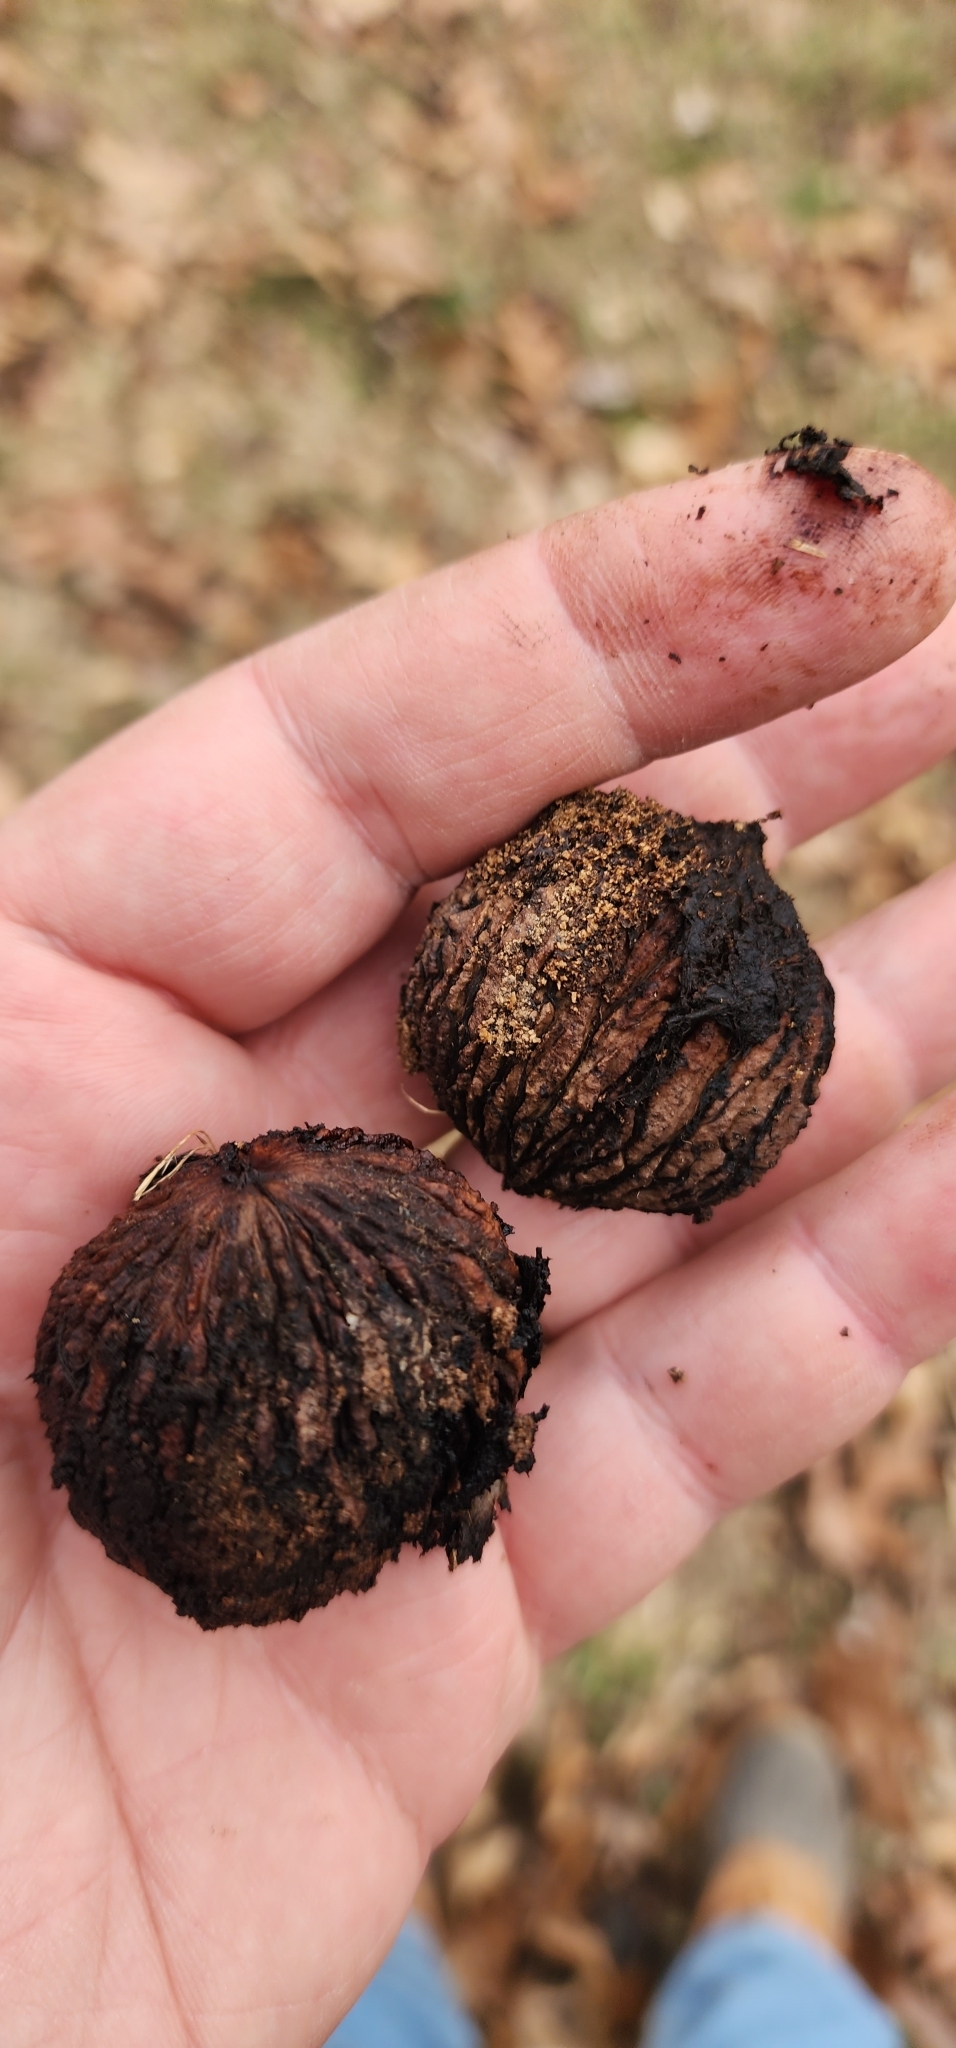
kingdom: Plantae
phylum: Tracheophyta
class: Magnoliopsida
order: Fagales
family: Juglandaceae
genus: Juglans
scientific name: Juglans nigra
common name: Black walnut
